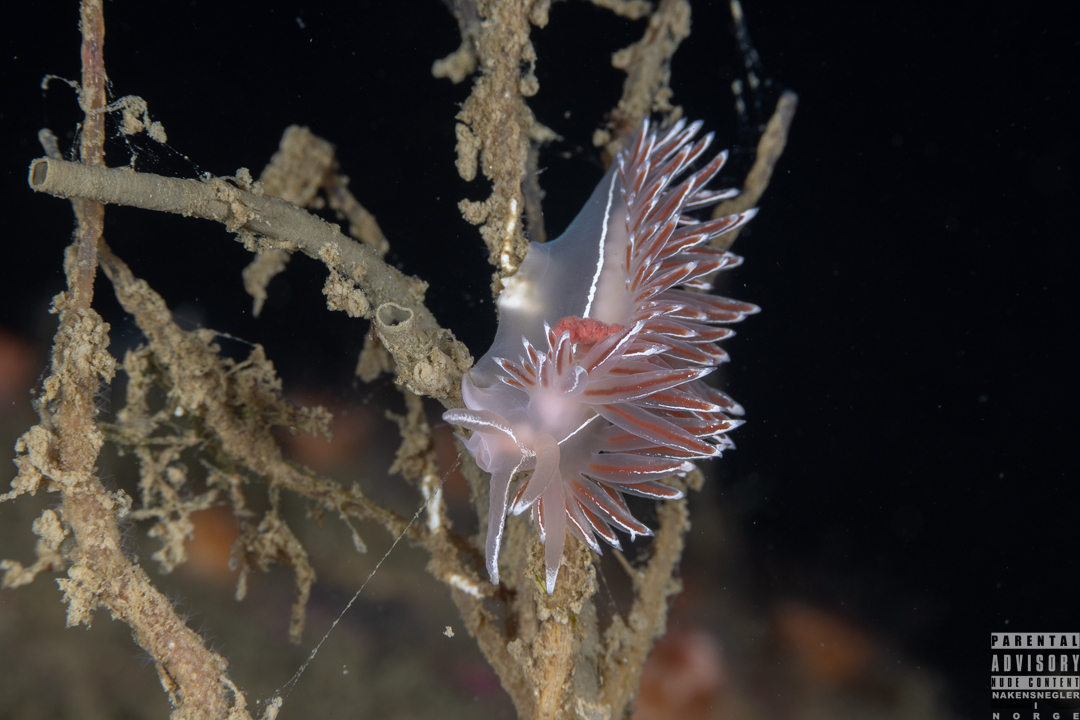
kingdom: Animalia
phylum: Mollusca
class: Gastropoda
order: Nudibranchia
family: Coryphellidae
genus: Coryphella
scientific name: Coryphella lineata
